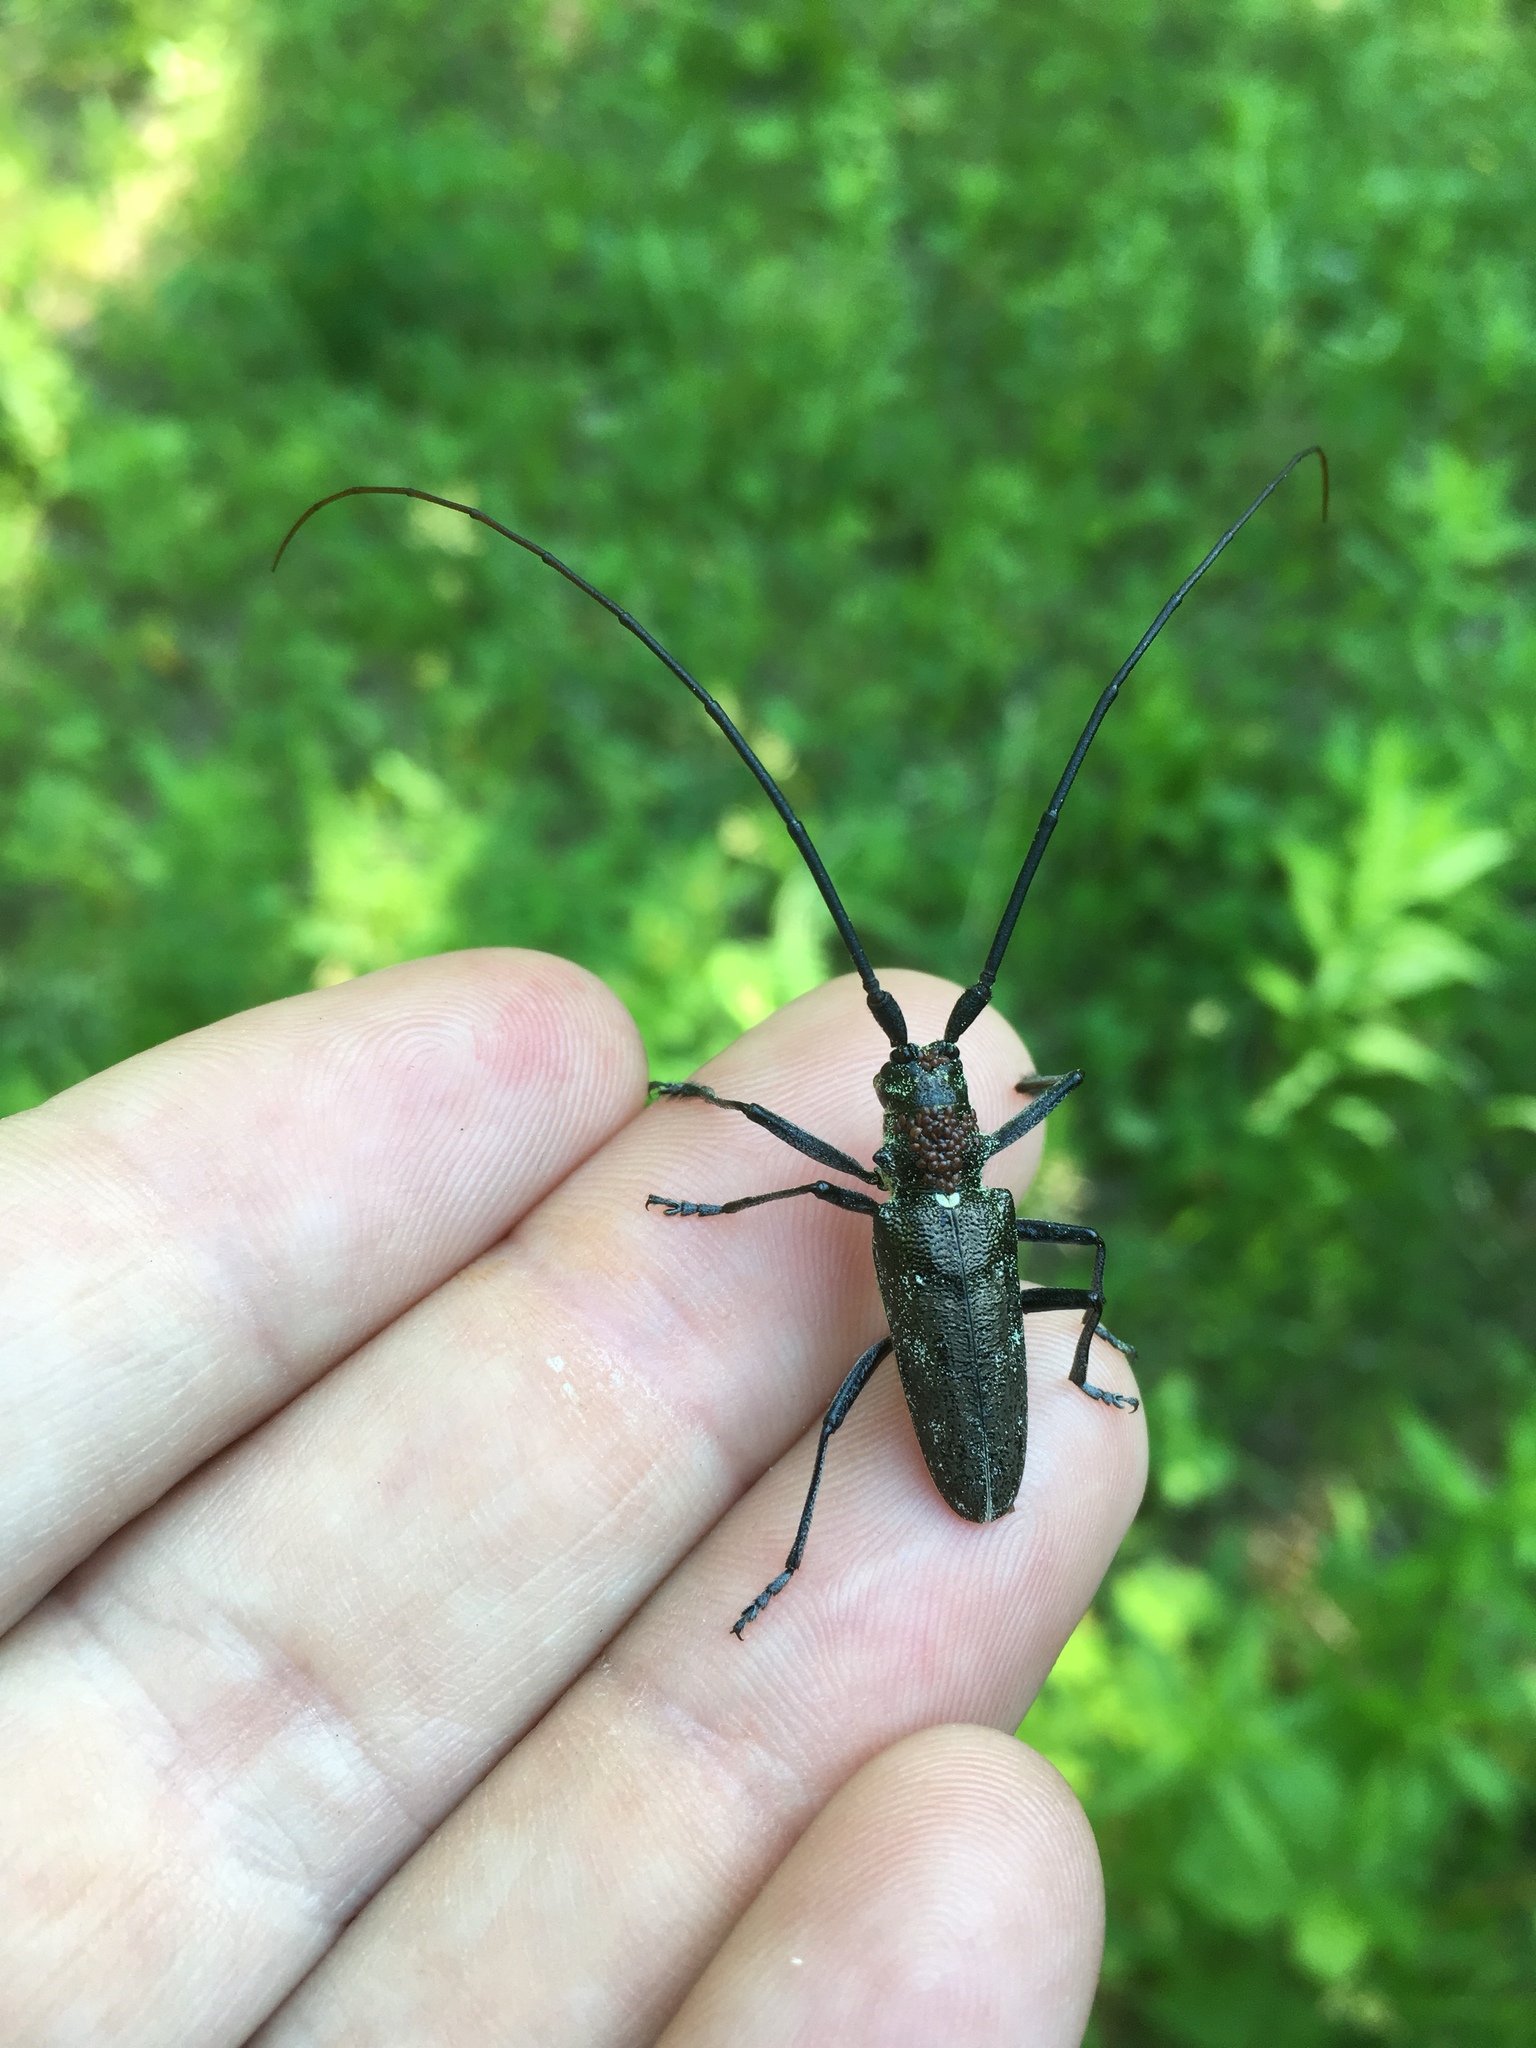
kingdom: Animalia
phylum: Arthropoda
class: Insecta
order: Coleoptera
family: Cerambycidae
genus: Monochamus
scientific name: Monochamus scutellatus
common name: White-spotted sawyer beetle
